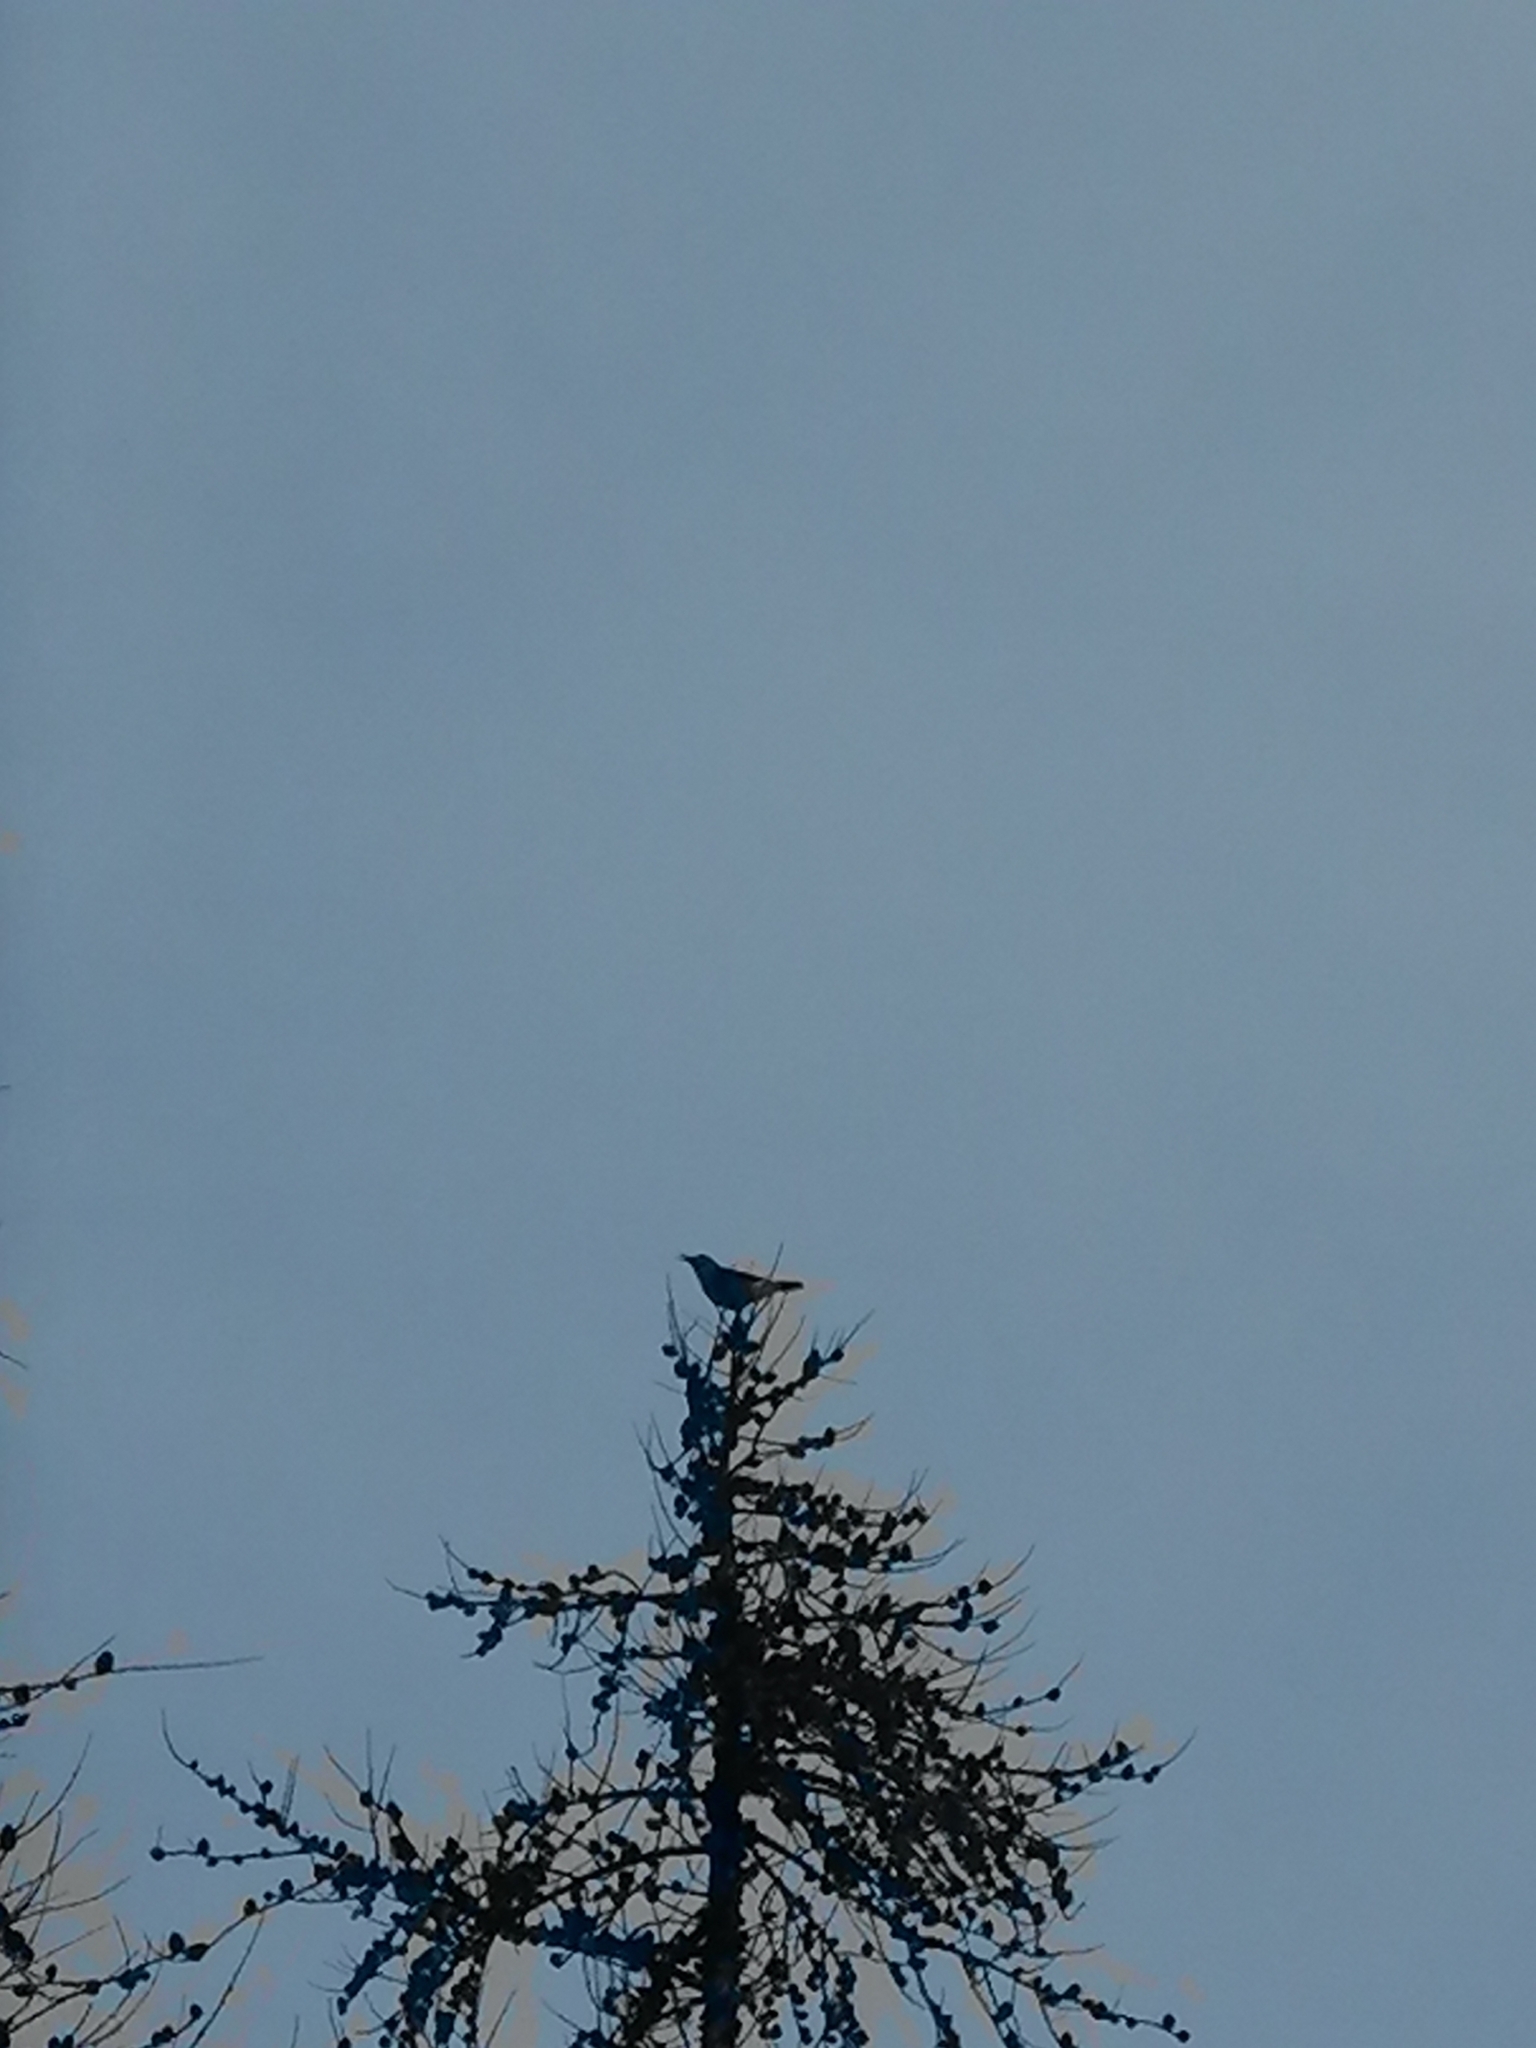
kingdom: Animalia
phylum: Chordata
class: Aves
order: Passeriformes
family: Corvidae
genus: Nucifraga
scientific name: Nucifraga caryocatactes
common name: Spotted nutcracker
